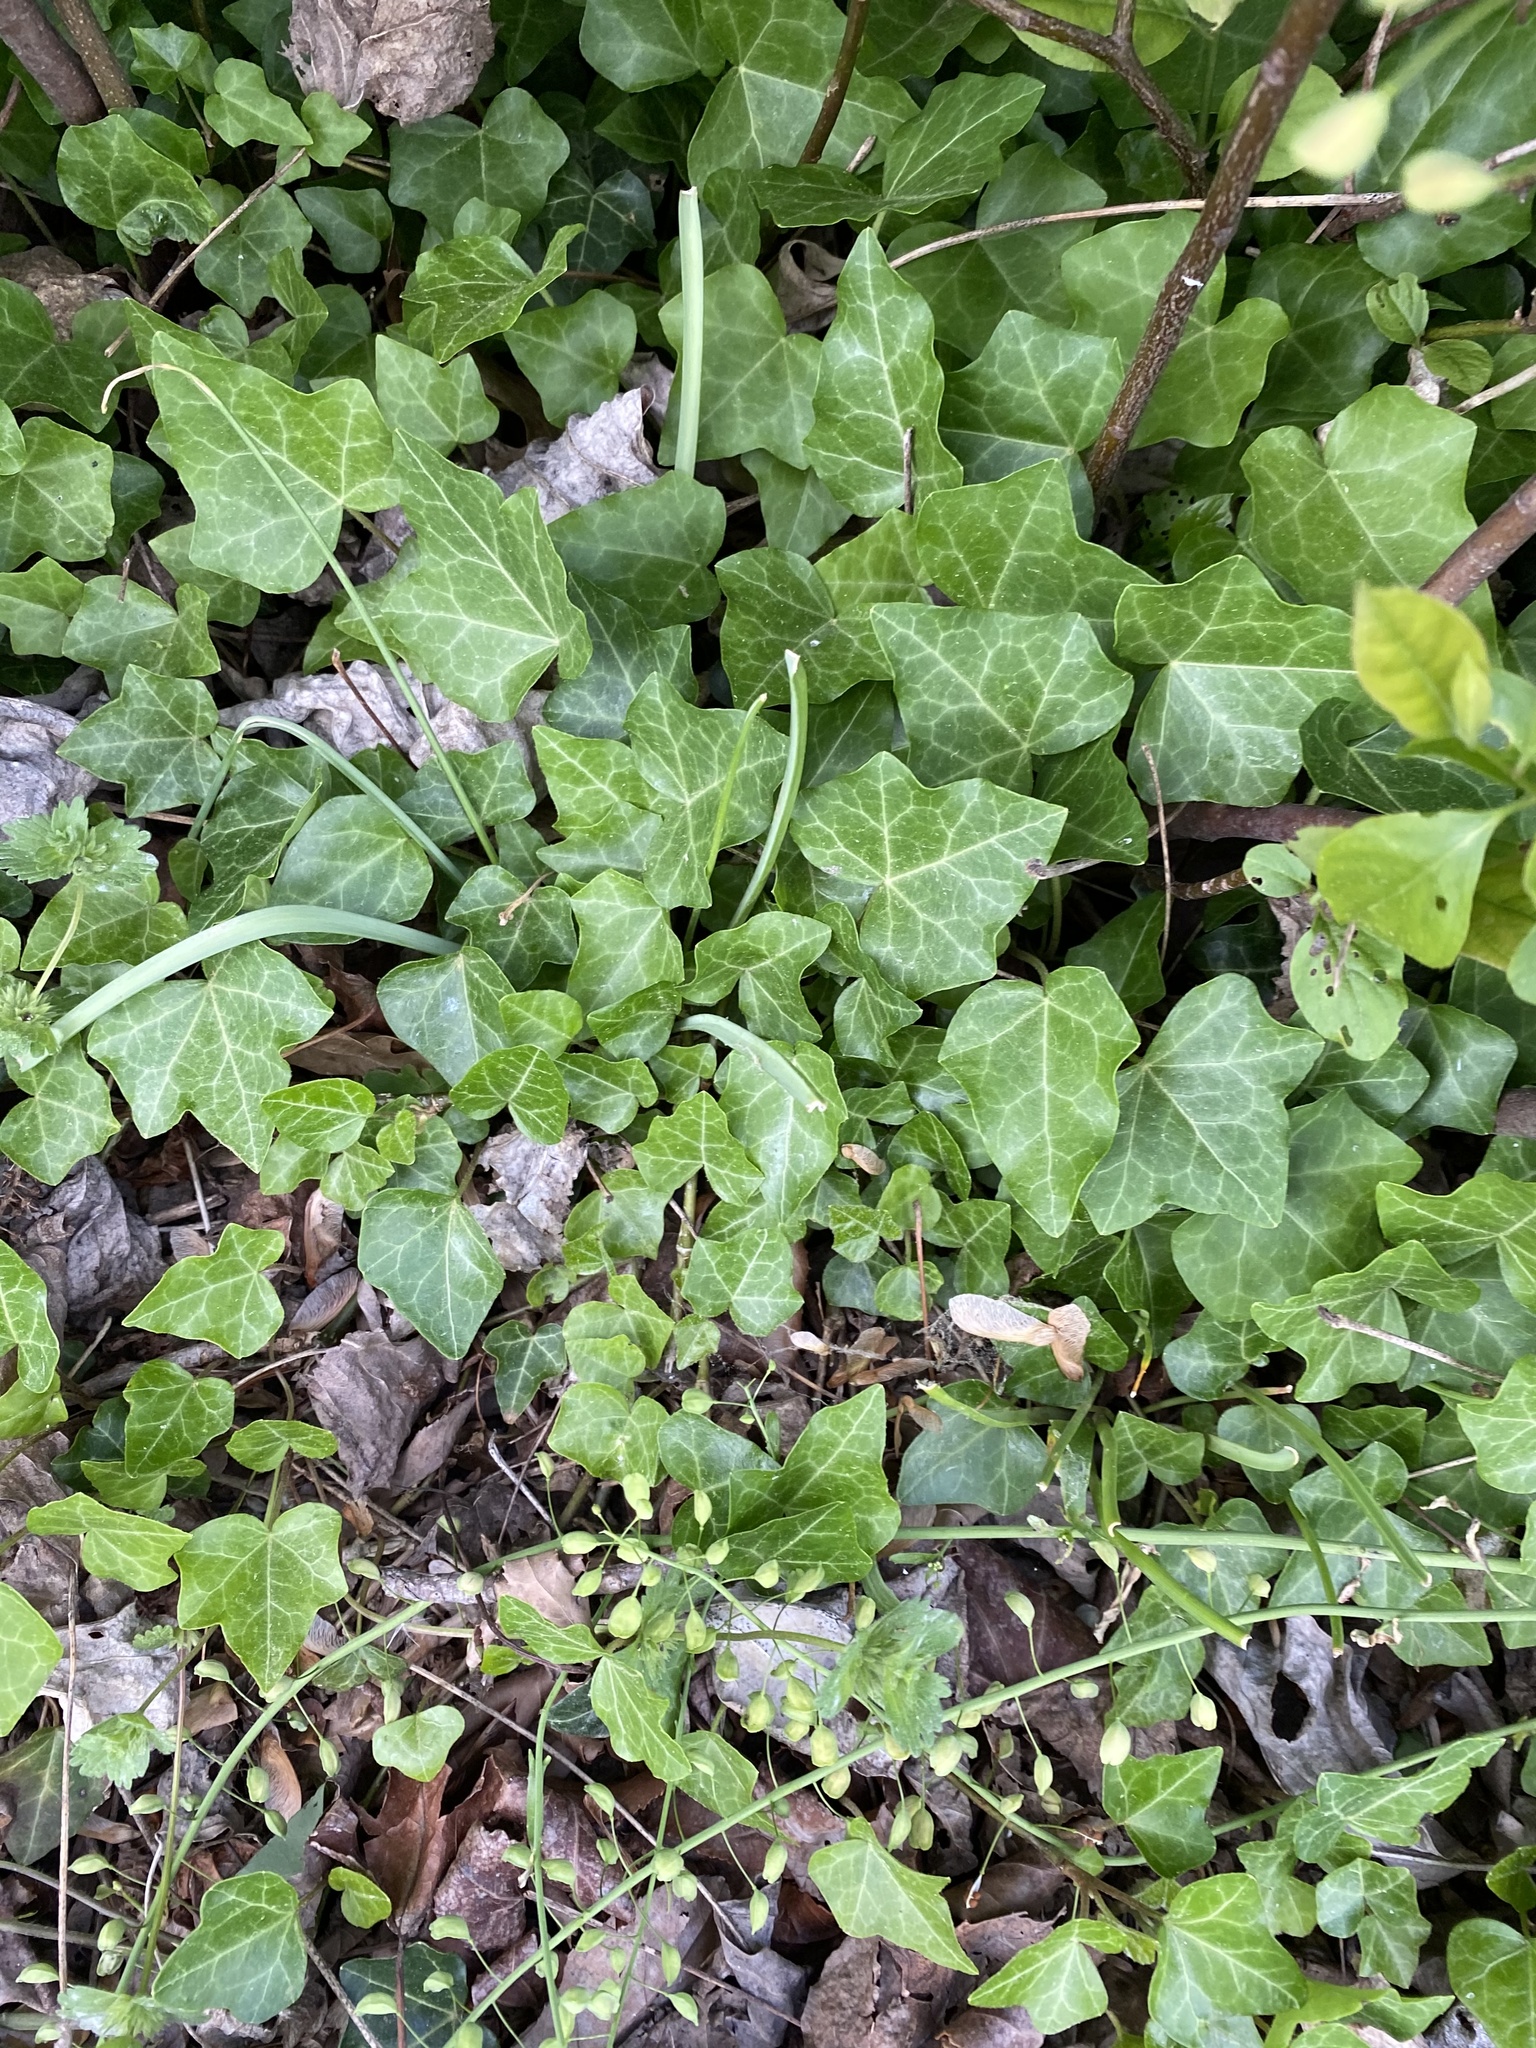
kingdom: Plantae
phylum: Tracheophyta
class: Magnoliopsida
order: Apiales
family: Araliaceae
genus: Hedera
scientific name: Hedera helix
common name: Ivy
